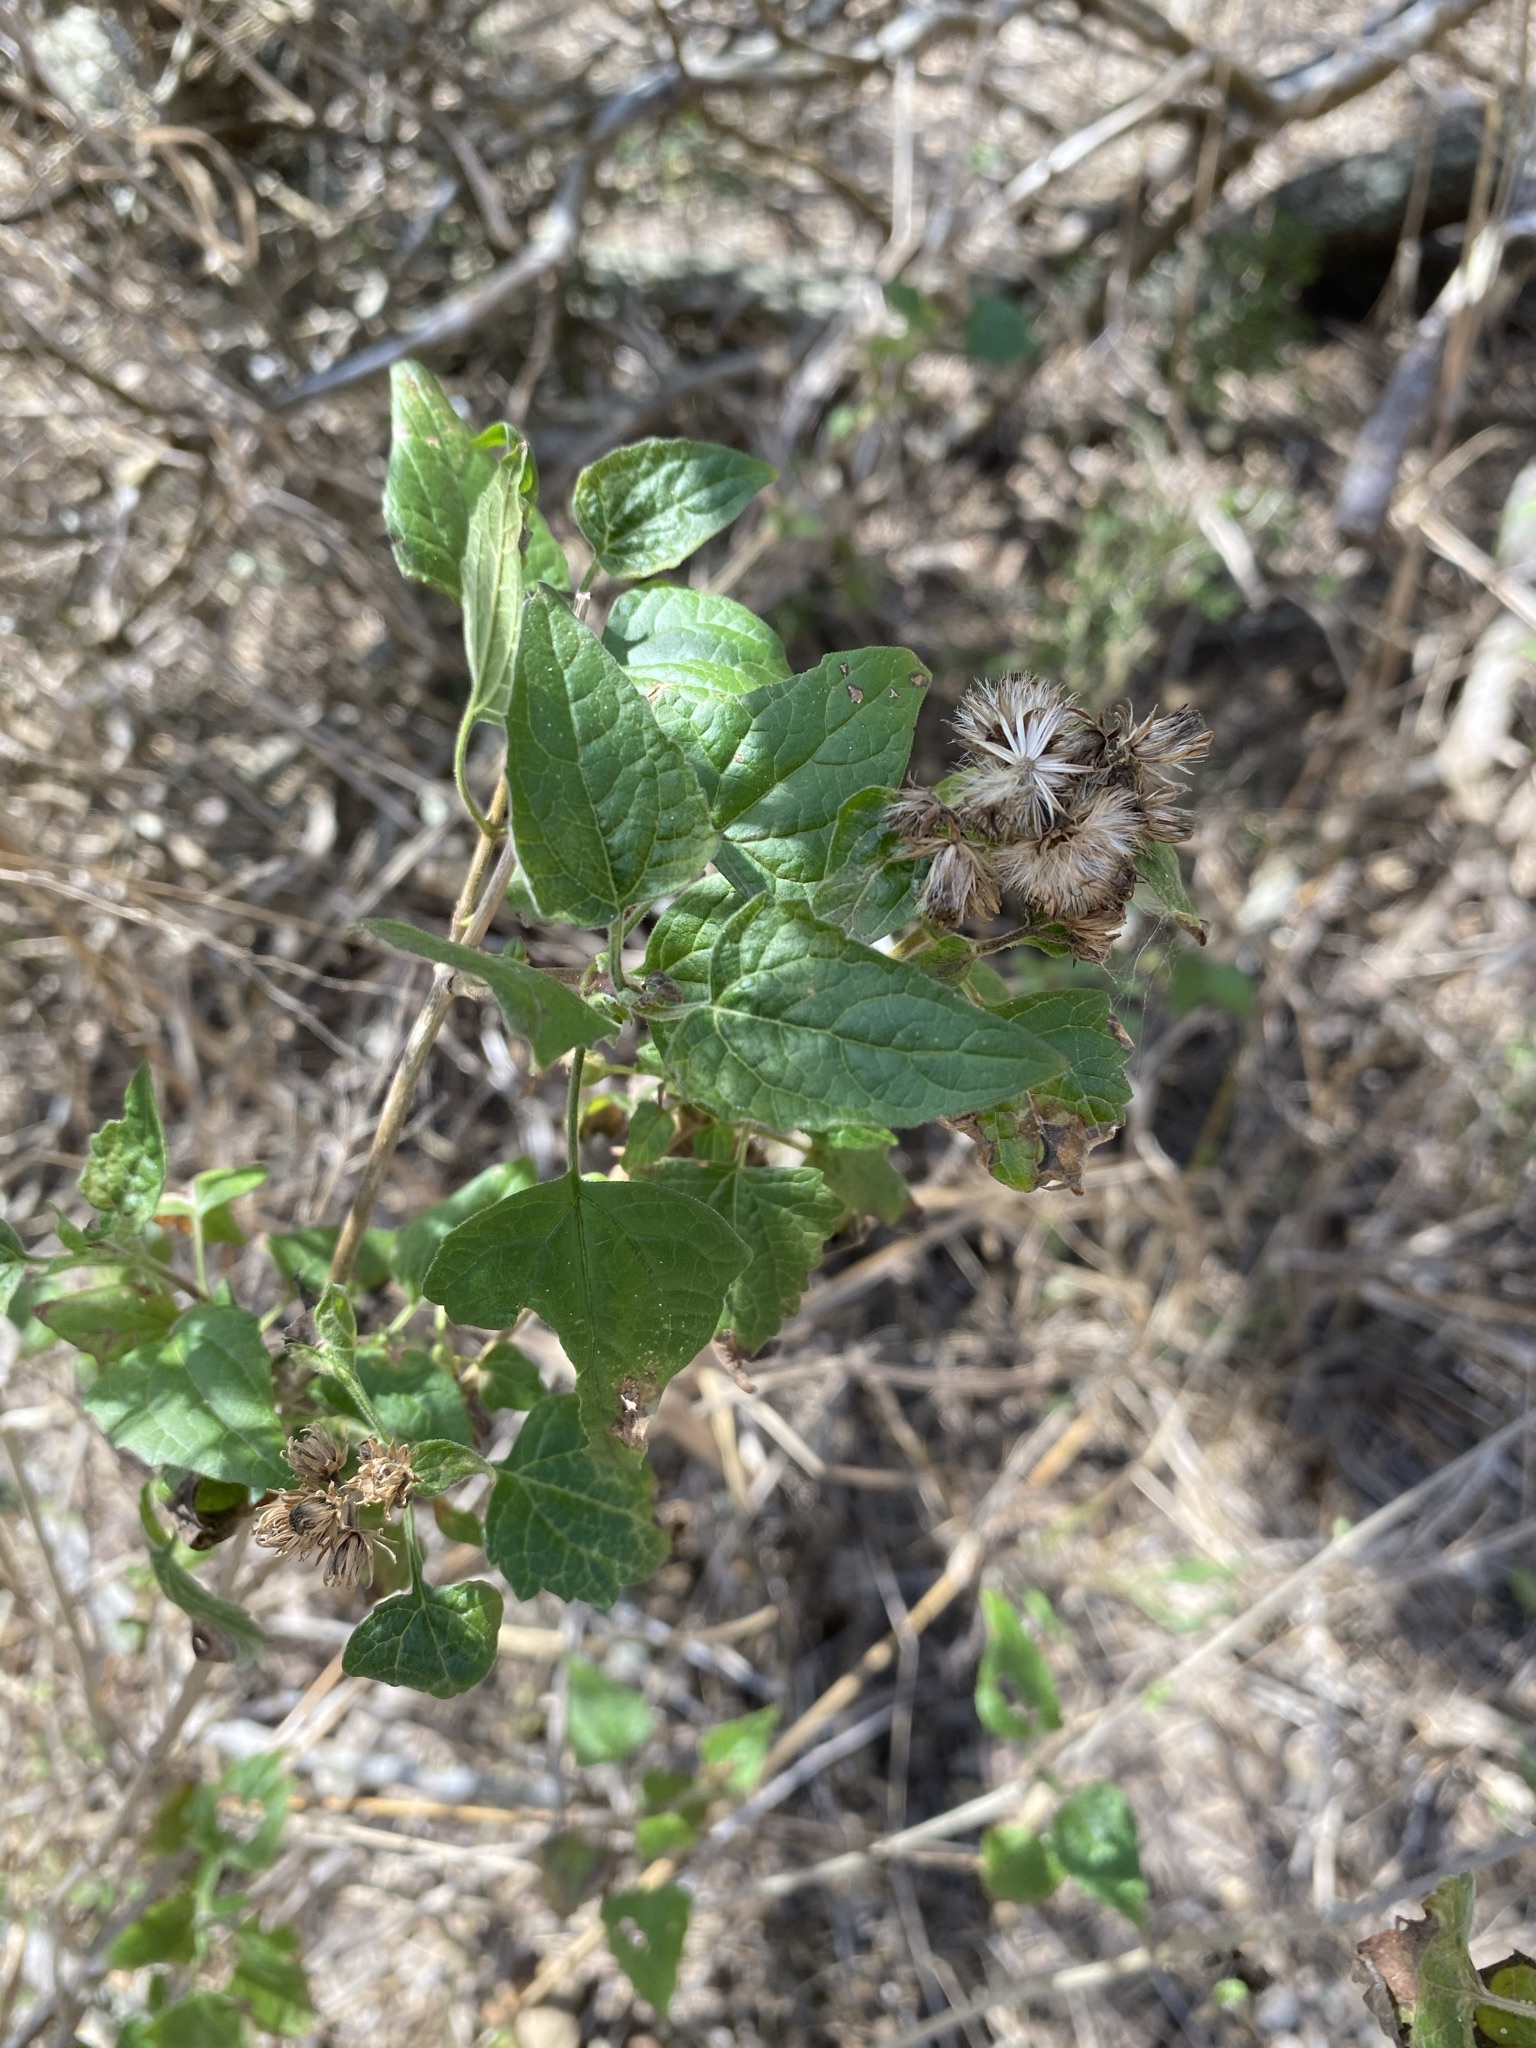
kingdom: Plantae
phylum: Tracheophyta
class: Magnoliopsida
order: Asterales
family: Asteraceae
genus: Tamaulipa
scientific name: Tamaulipa azurea
